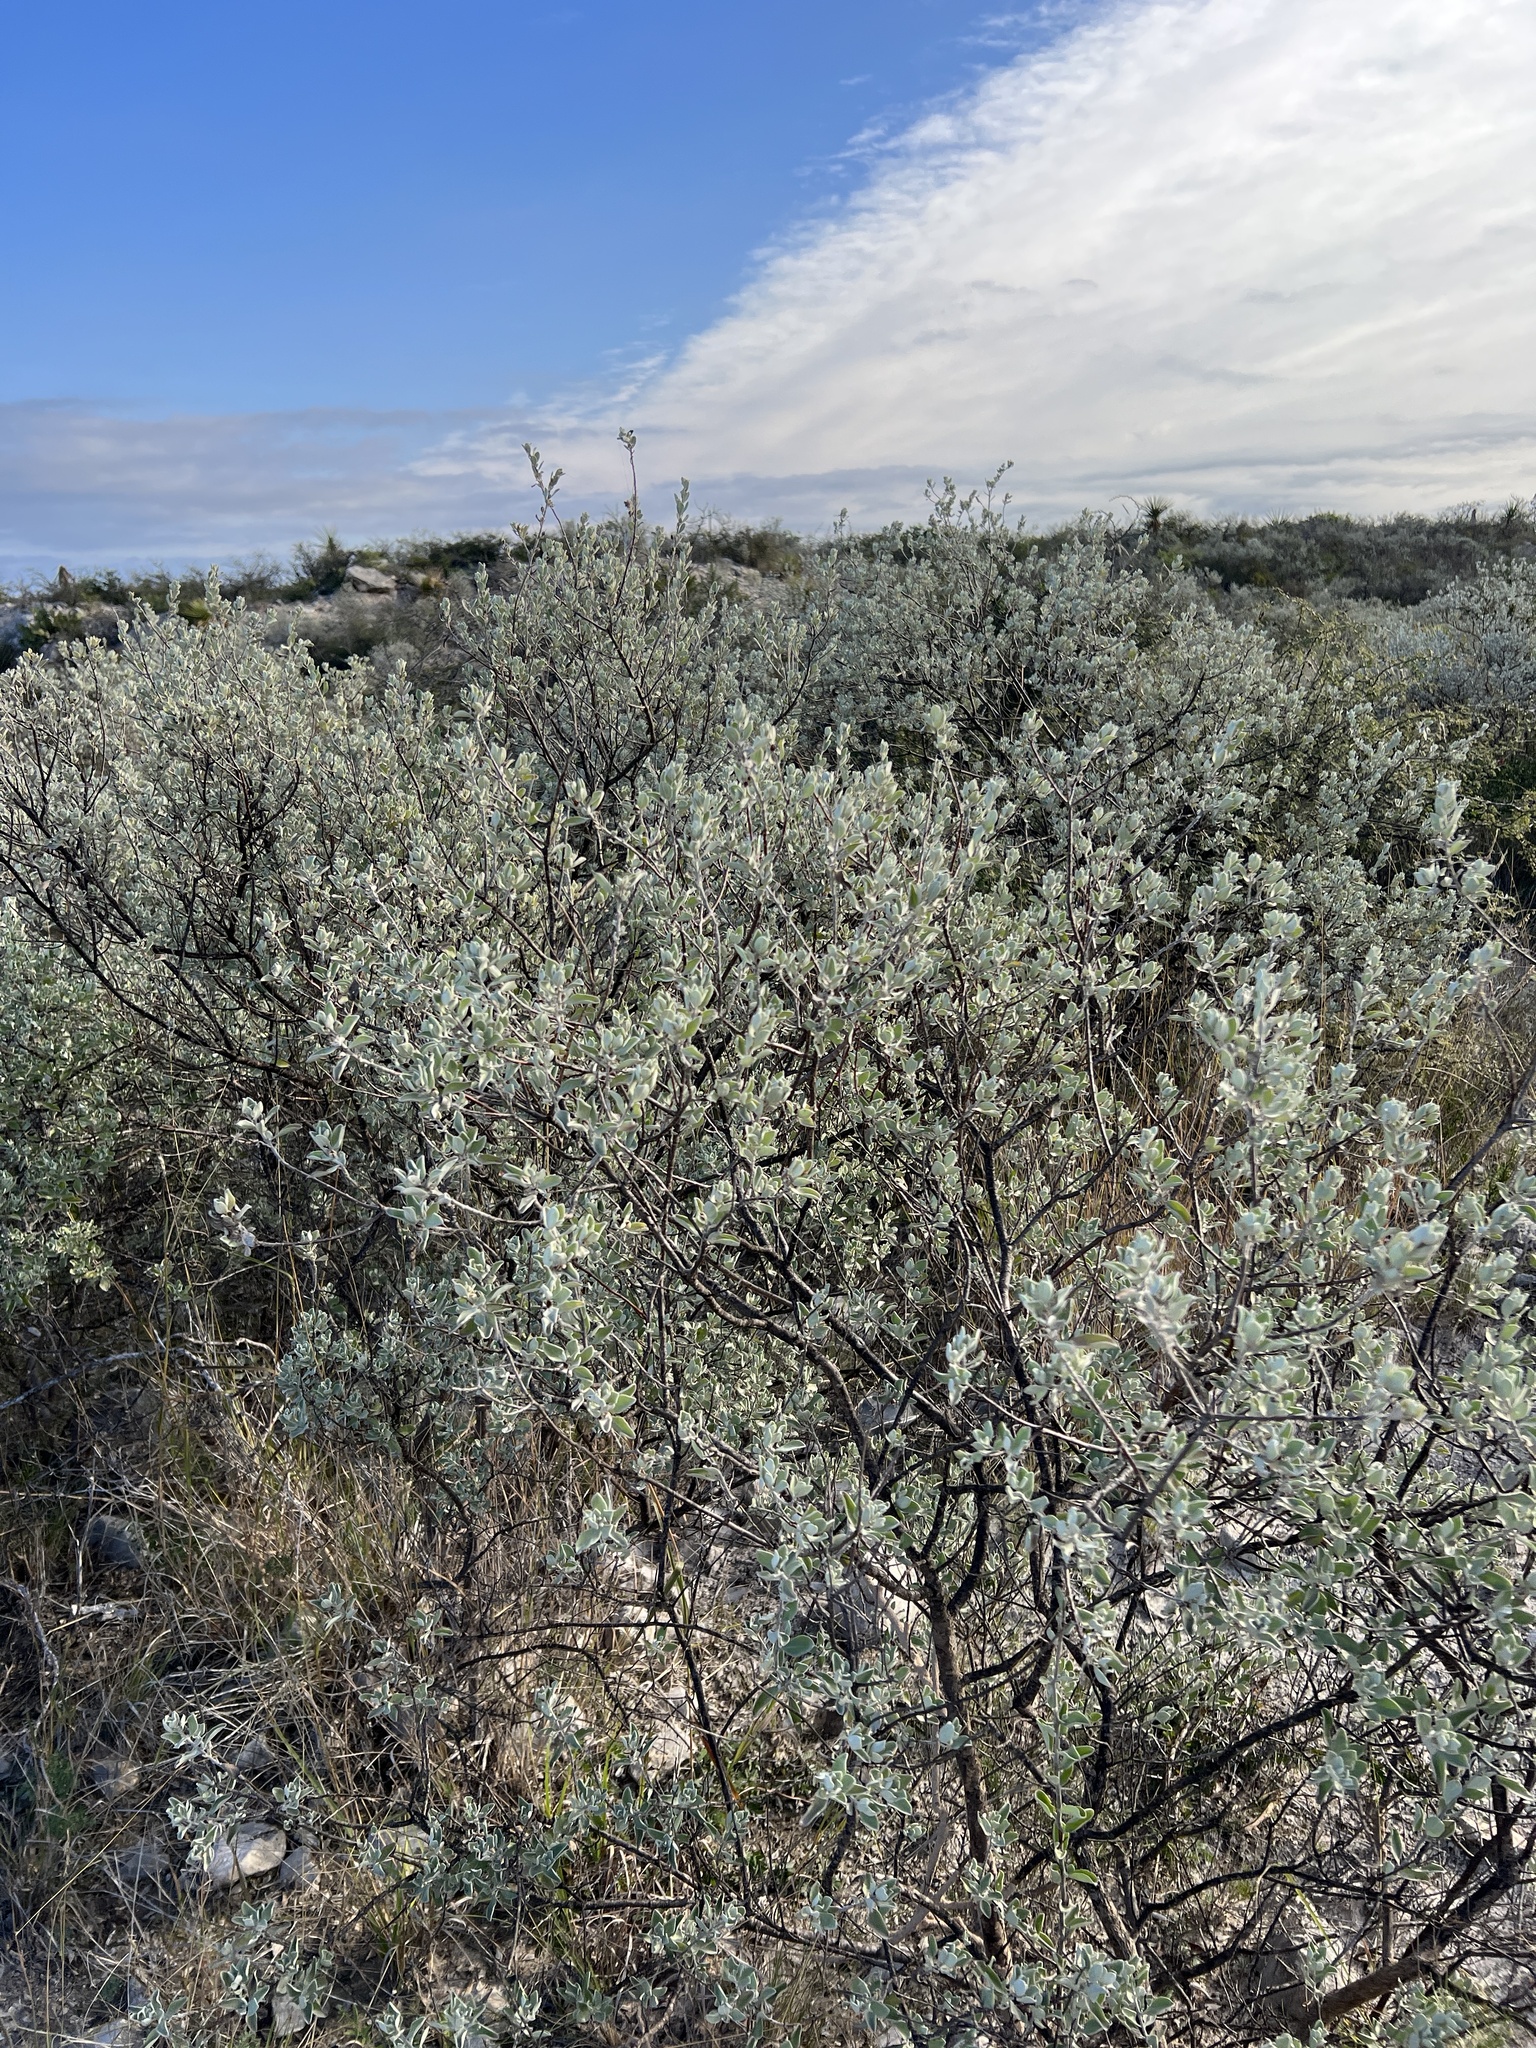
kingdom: Plantae
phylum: Tracheophyta
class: Magnoliopsida
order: Lamiales
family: Scrophulariaceae
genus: Leucophyllum
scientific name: Leucophyllum frutescens
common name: Texas silverleaf
